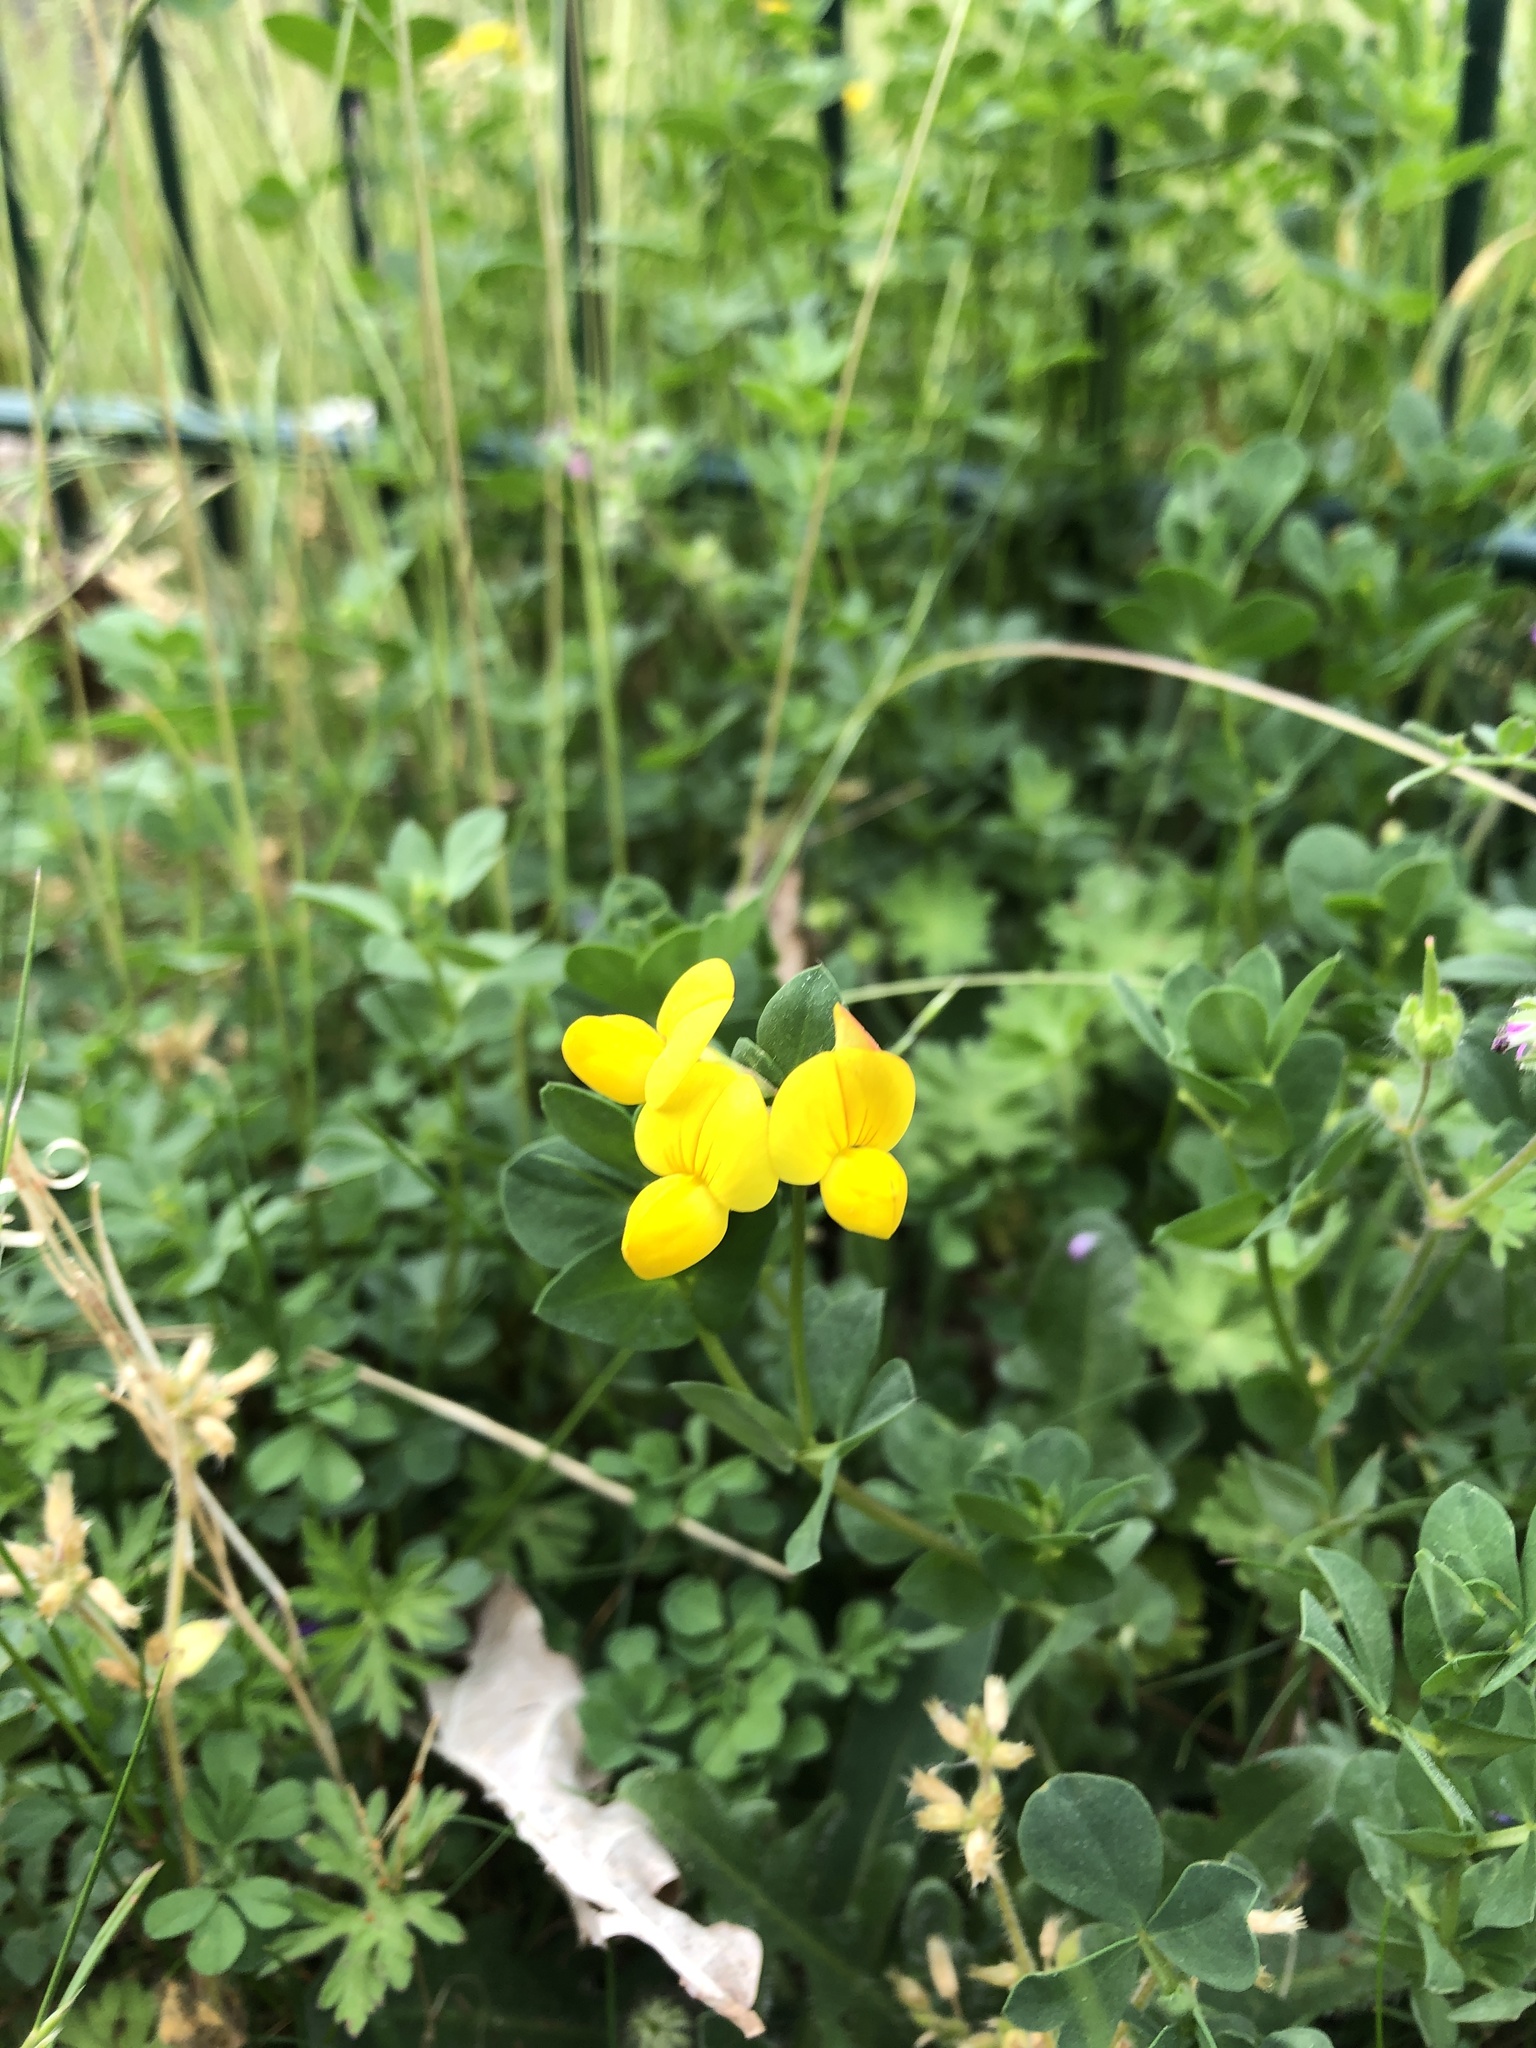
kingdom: Plantae
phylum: Tracheophyta
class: Magnoliopsida
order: Fabales
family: Fabaceae
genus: Lotus
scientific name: Lotus corniculatus
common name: Common bird's-foot-trefoil
